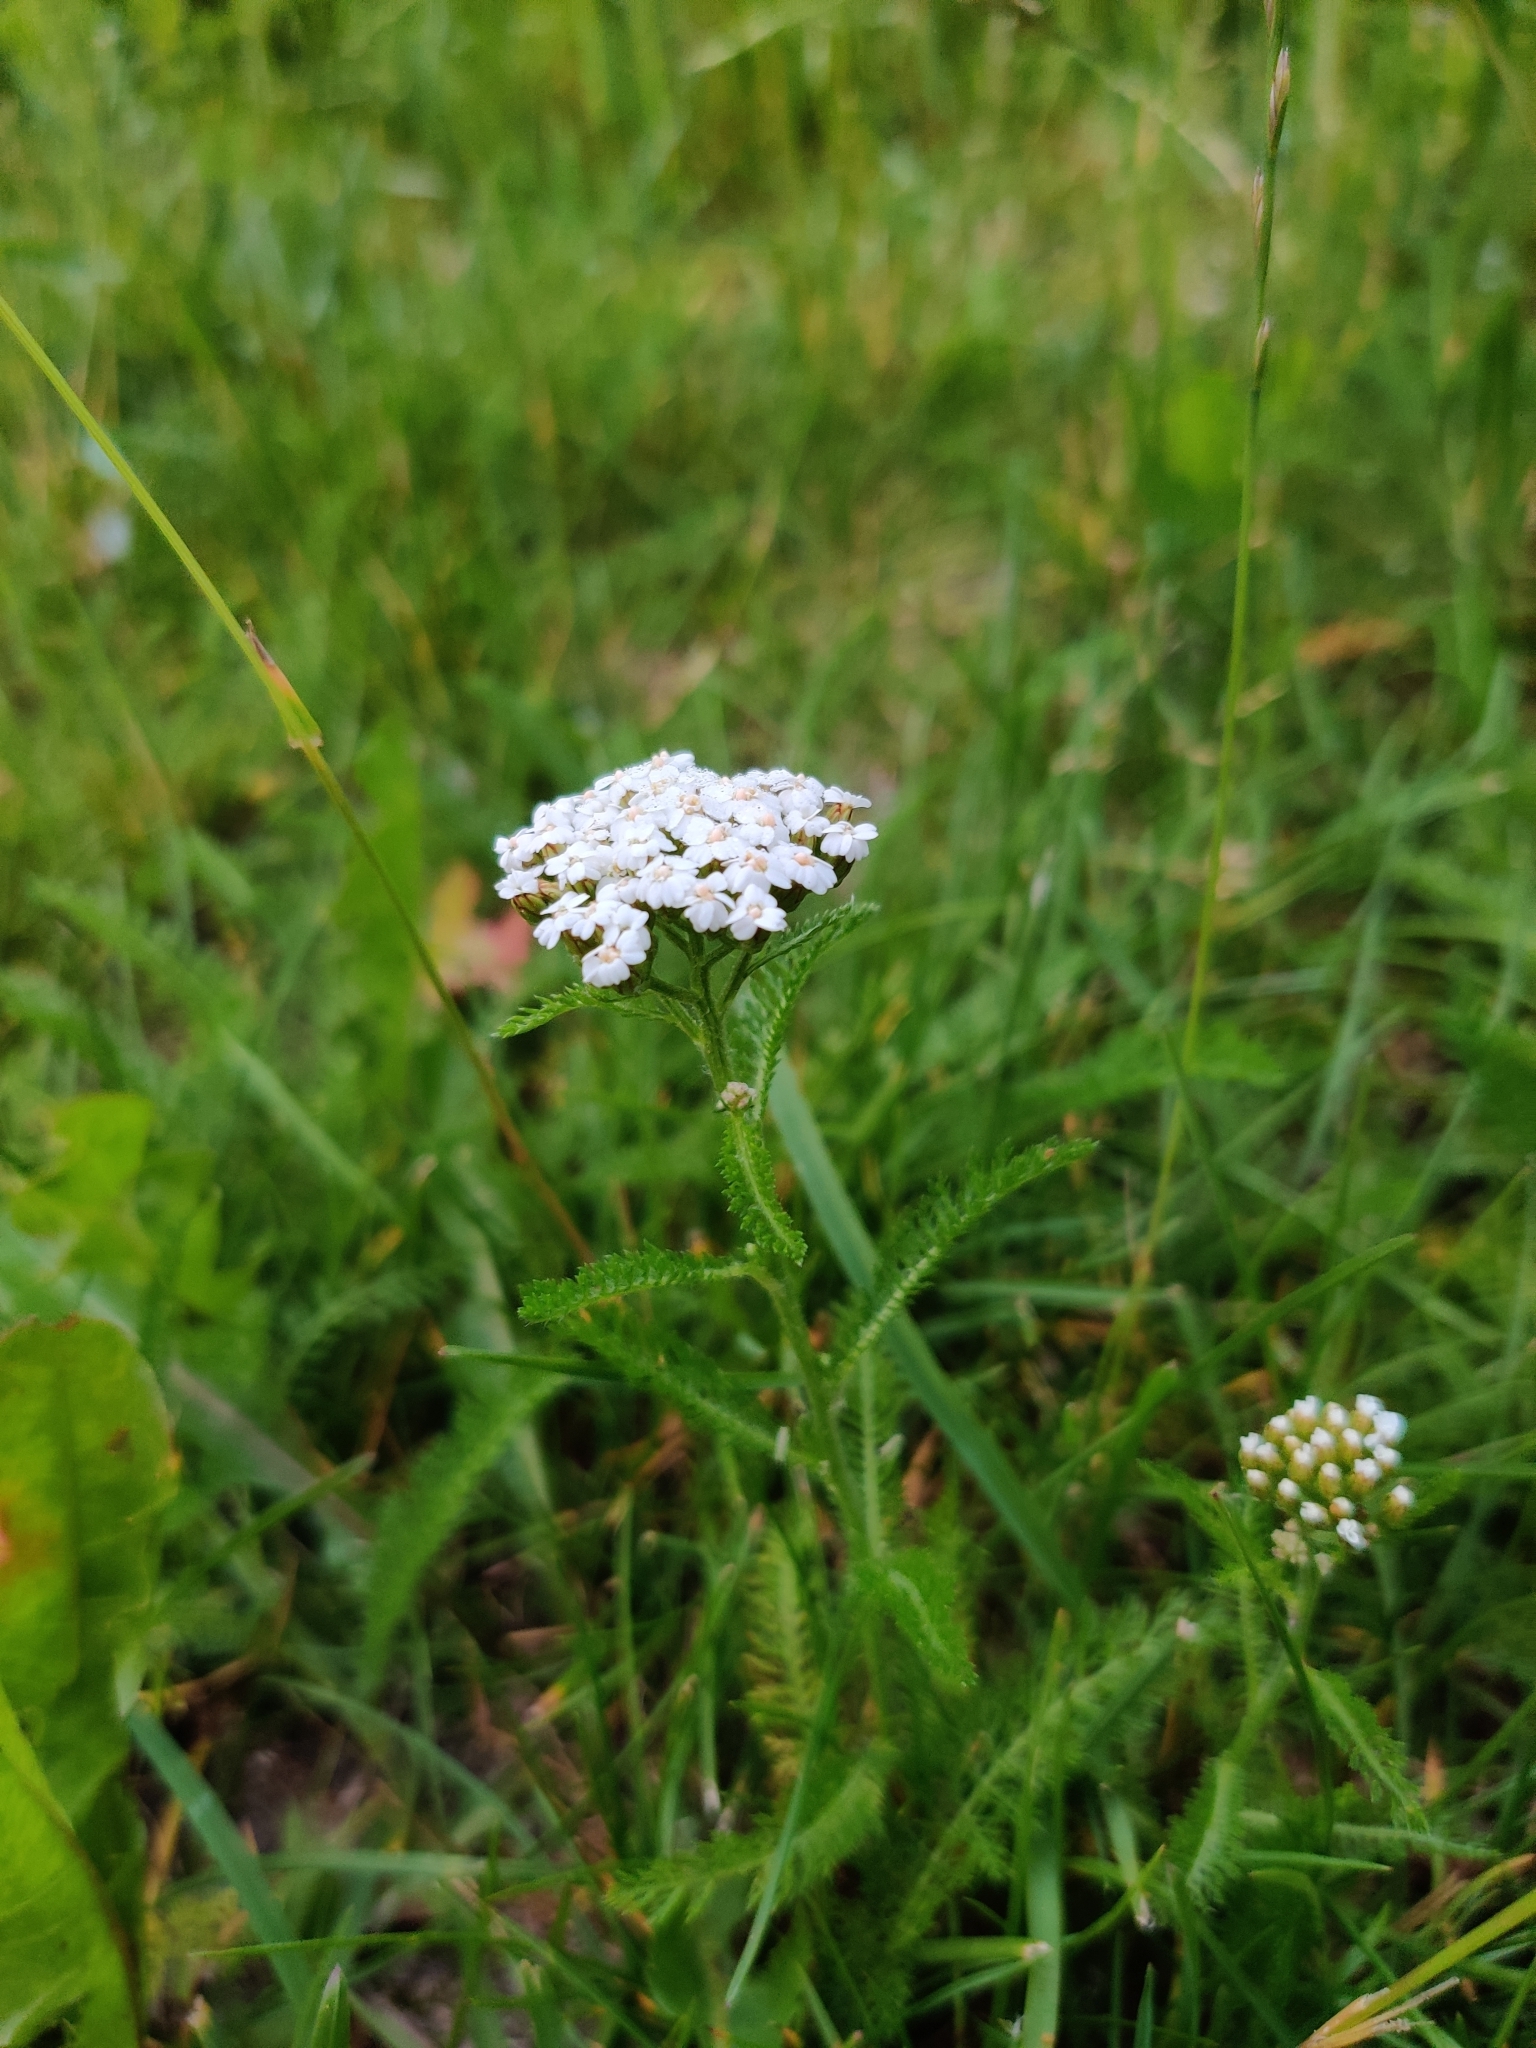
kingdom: Plantae
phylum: Tracheophyta
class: Magnoliopsida
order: Asterales
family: Asteraceae
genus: Achillea
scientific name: Achillea millefolium
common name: Yarrow
